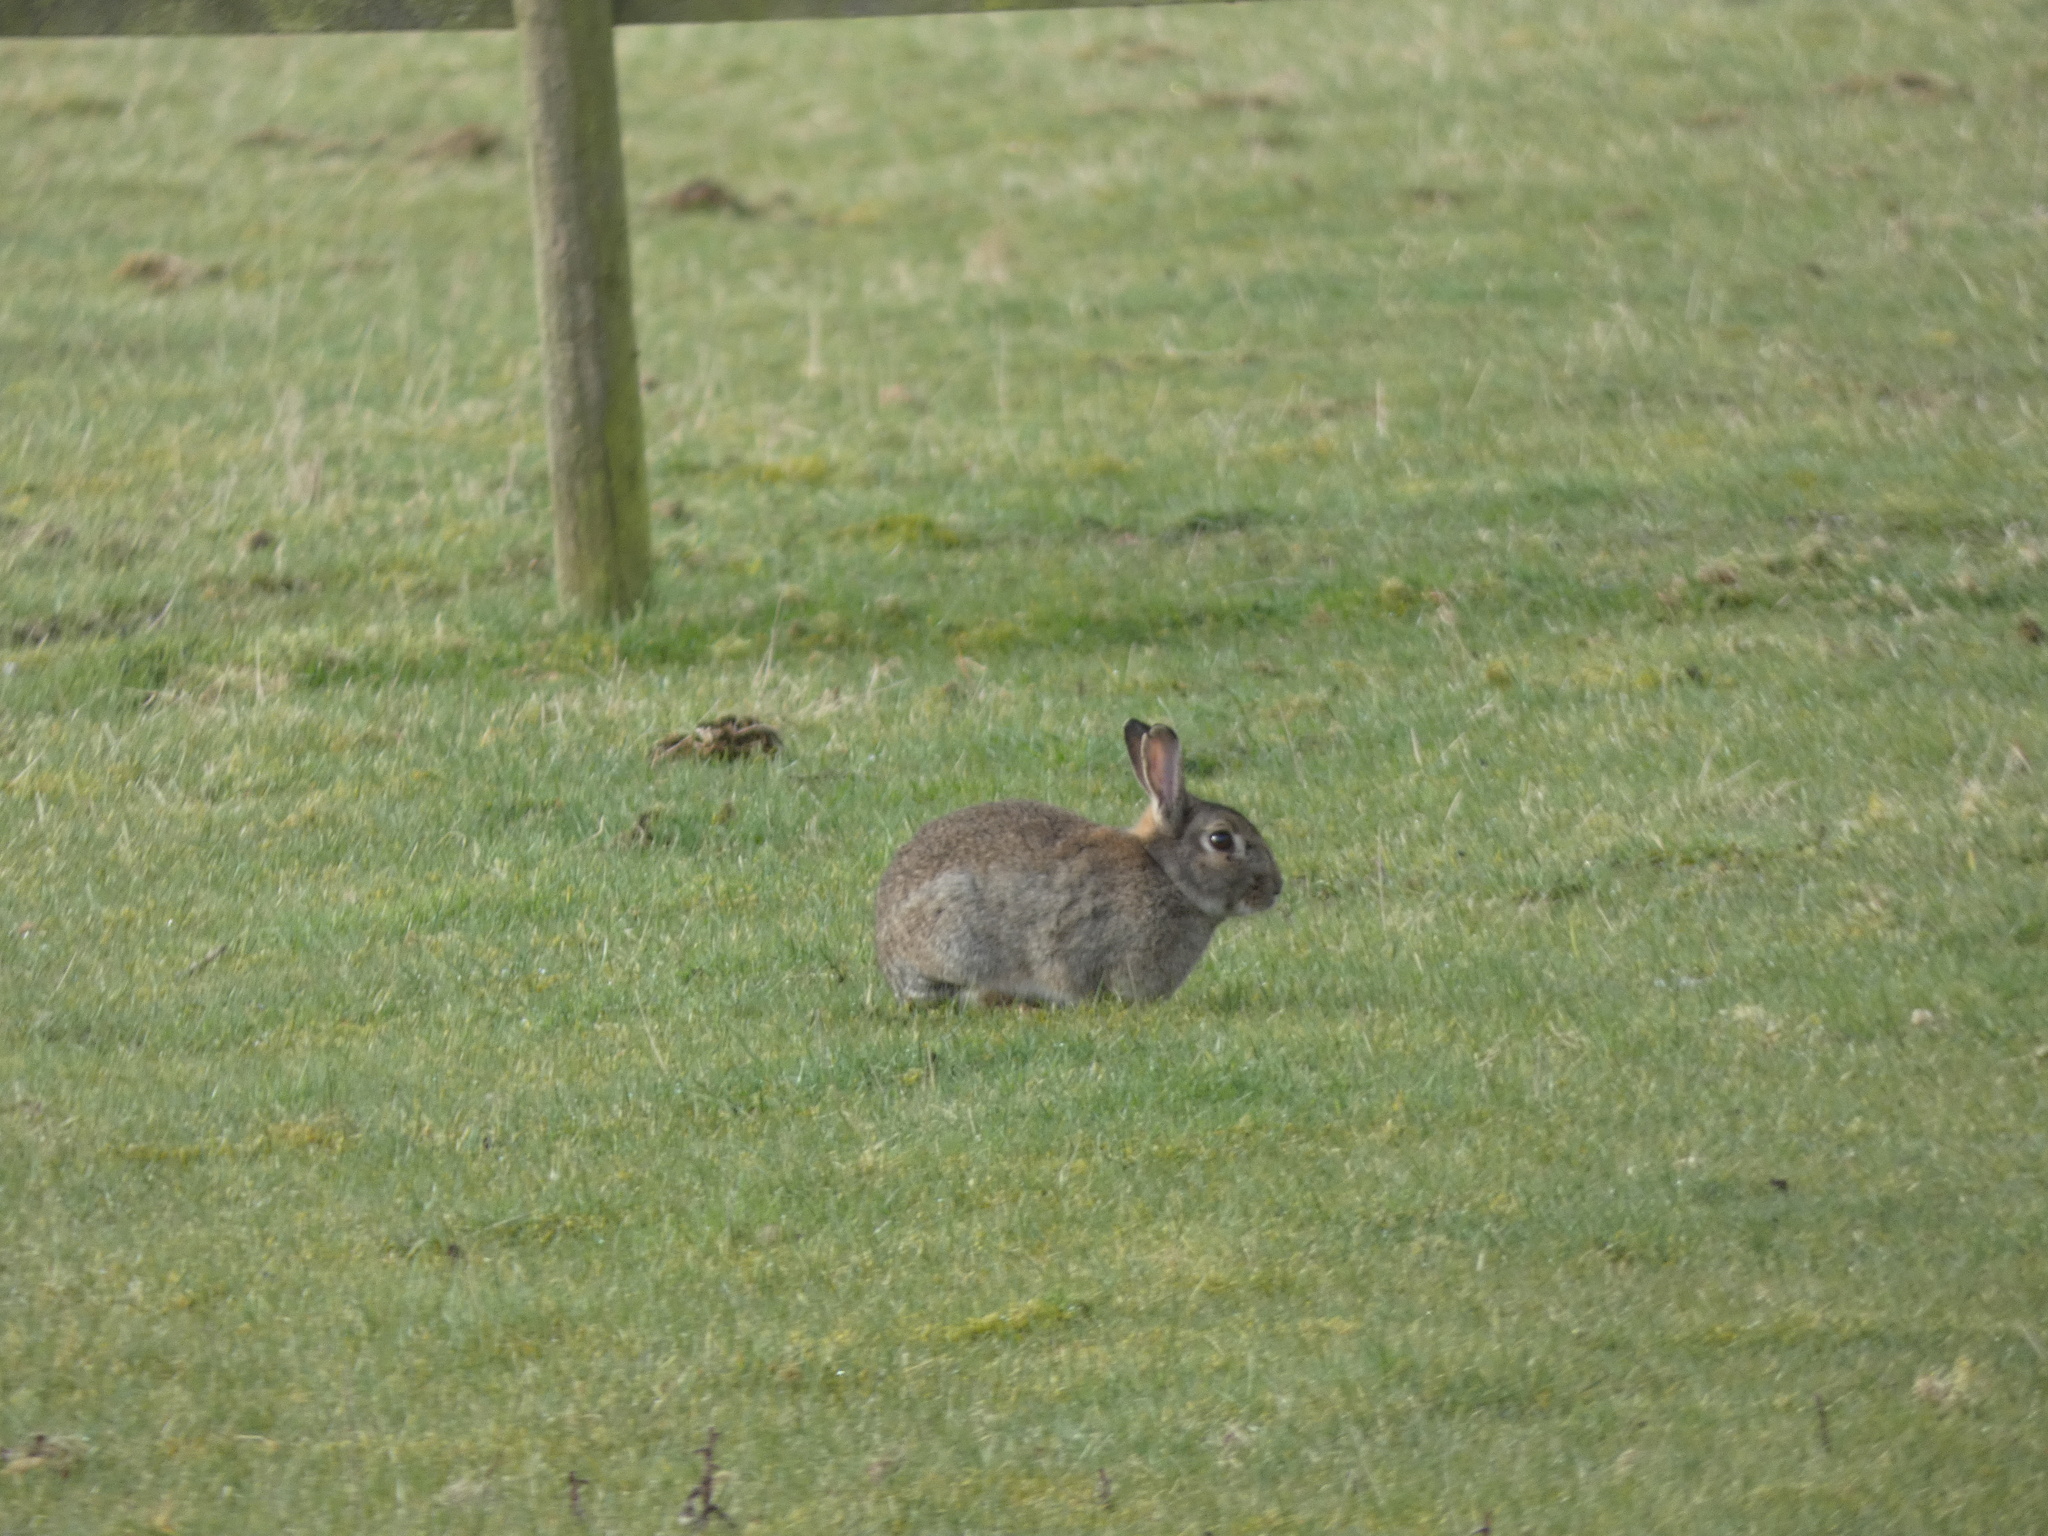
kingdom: Animalia
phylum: Chordata
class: Mammalia
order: Lagomorpha
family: Leporidae
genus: Oryctolagus
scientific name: Oryctolagus cuniculus
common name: European rabbit
